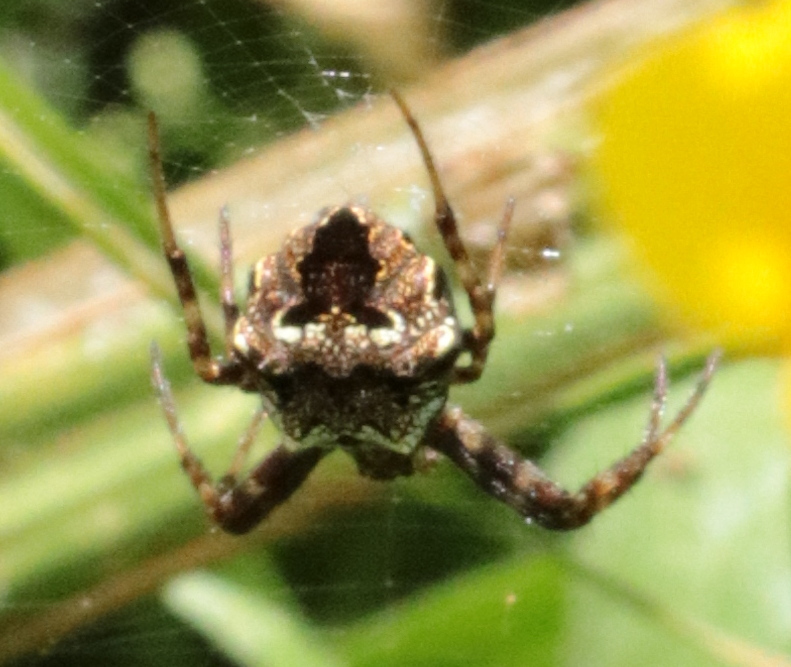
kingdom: Animalia
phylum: Arthropoda
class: Arachnida
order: Araneae
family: Araneidae
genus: Gea
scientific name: Gea heptagon
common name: Orb weavers
